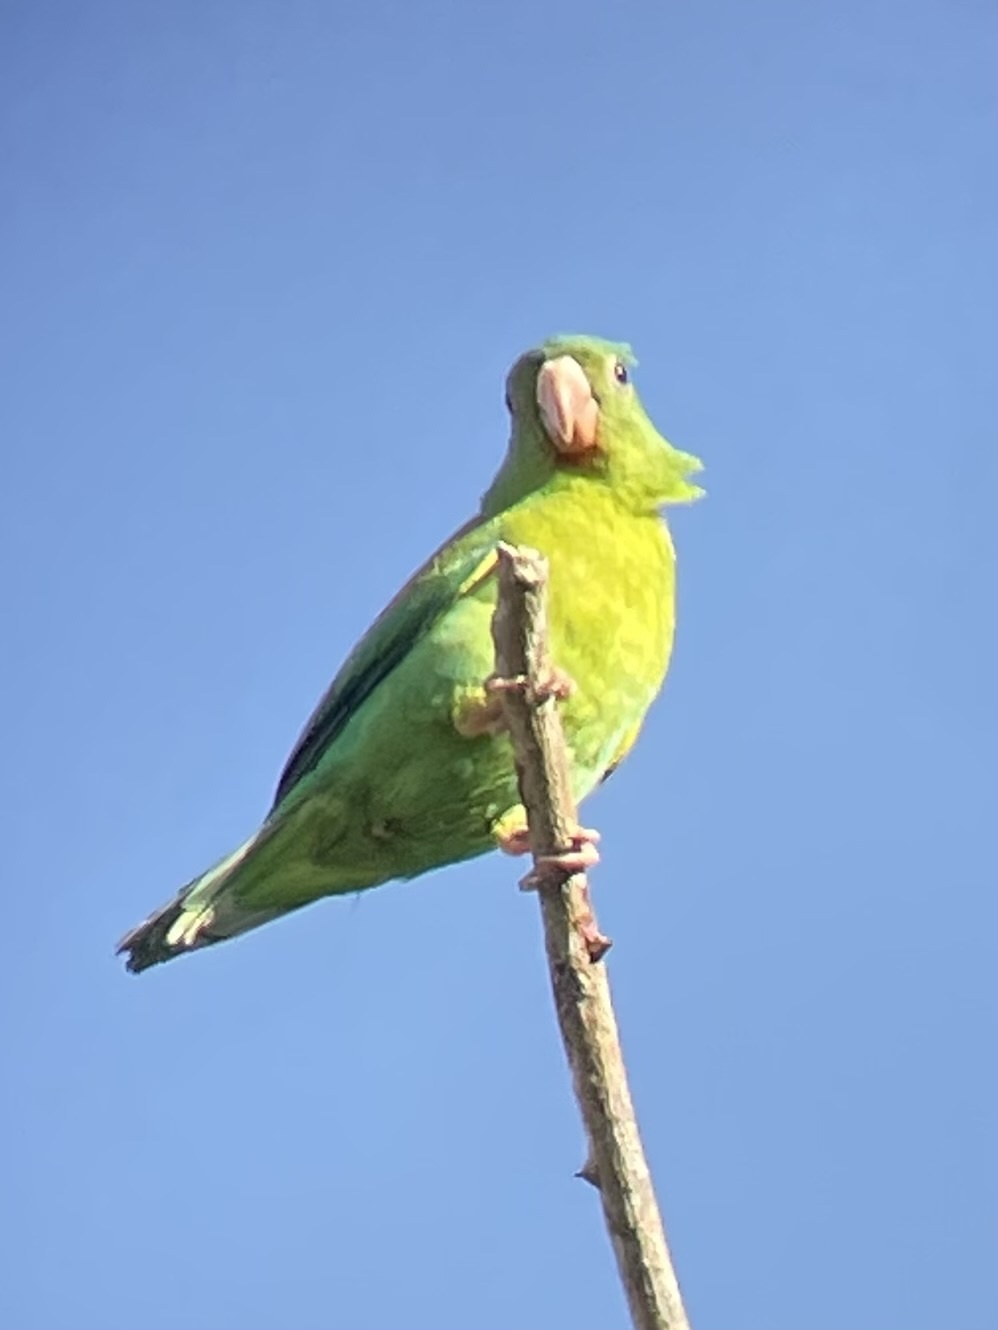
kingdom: Animalia
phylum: Chordata
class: Aves
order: Psittaciformes
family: Psittacidae
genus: Brotogeris
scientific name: Brotogeris jugularis
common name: Orange-chinned parakeet
